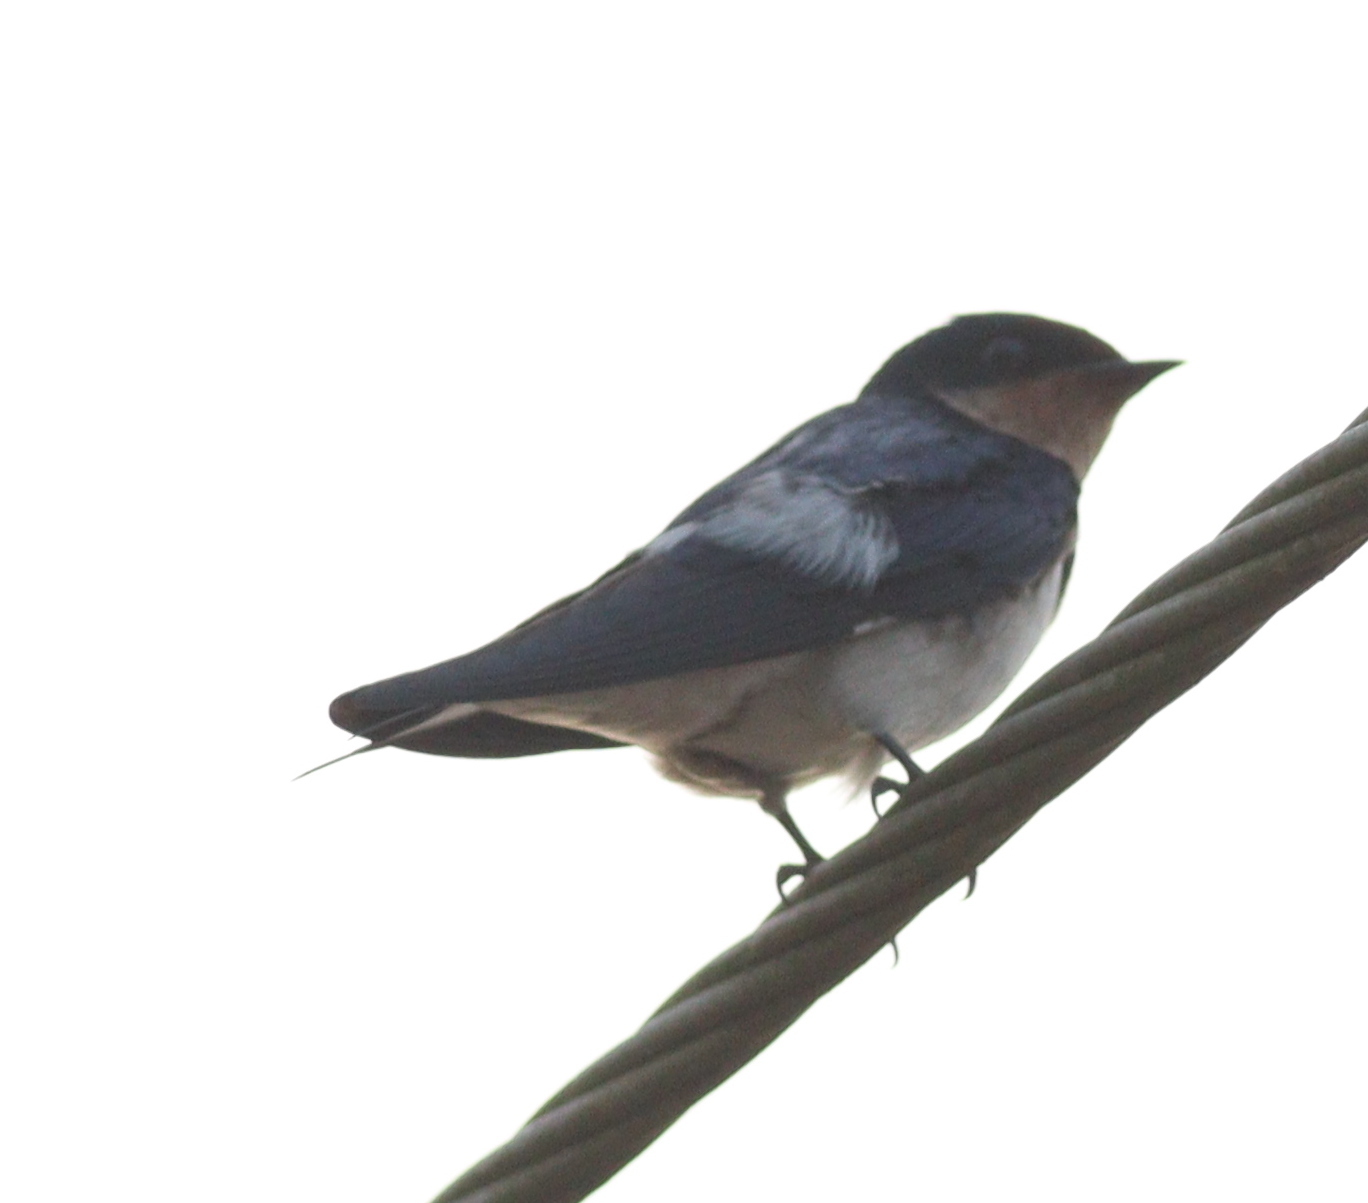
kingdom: Animalia
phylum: Chordata
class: Aves
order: Passeriformes
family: Hirundinidae
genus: Hirundo
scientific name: Hirundo aethiopica
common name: Ethiopian swallow
